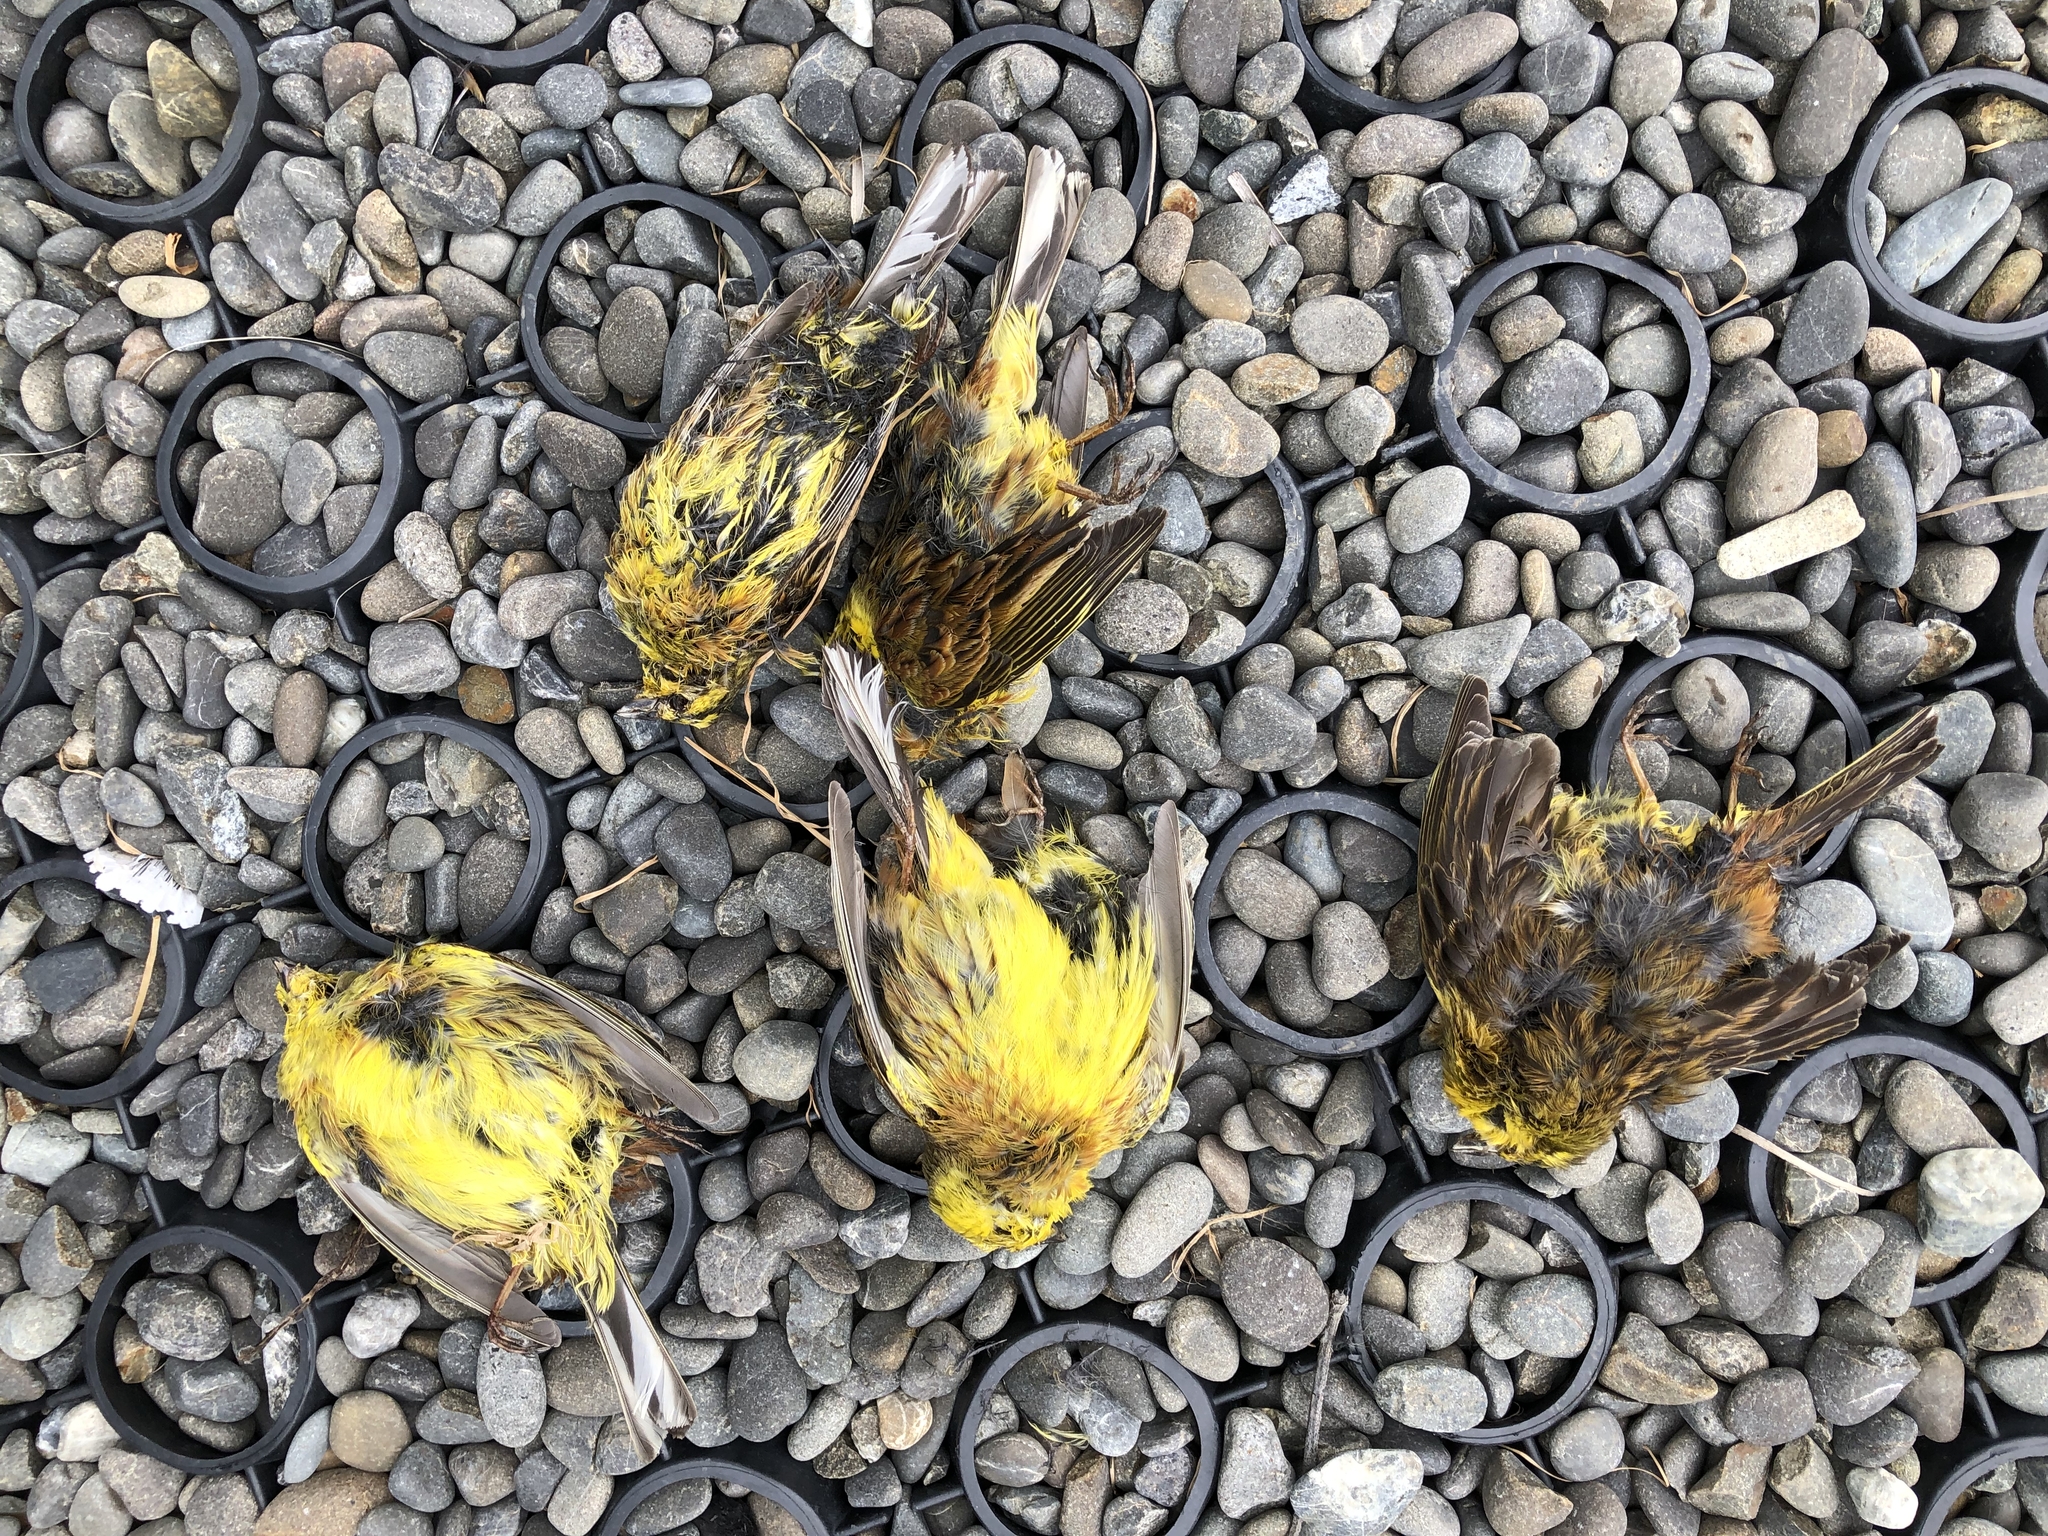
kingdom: Animalia
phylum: Chordata
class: Aves
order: Passeriformes
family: Emberizidae
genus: Emberiza
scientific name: Emberiza citrinella
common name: Yellowhammer
